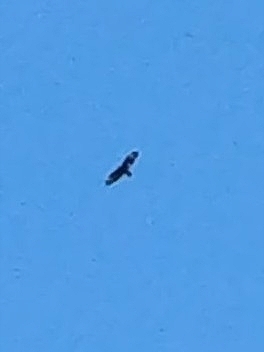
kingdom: Animalia
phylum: Chordata
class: Aves
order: Accipitriformes
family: Accipitridae
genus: Buteo
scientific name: Buteo buteo
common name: Common buzzard
